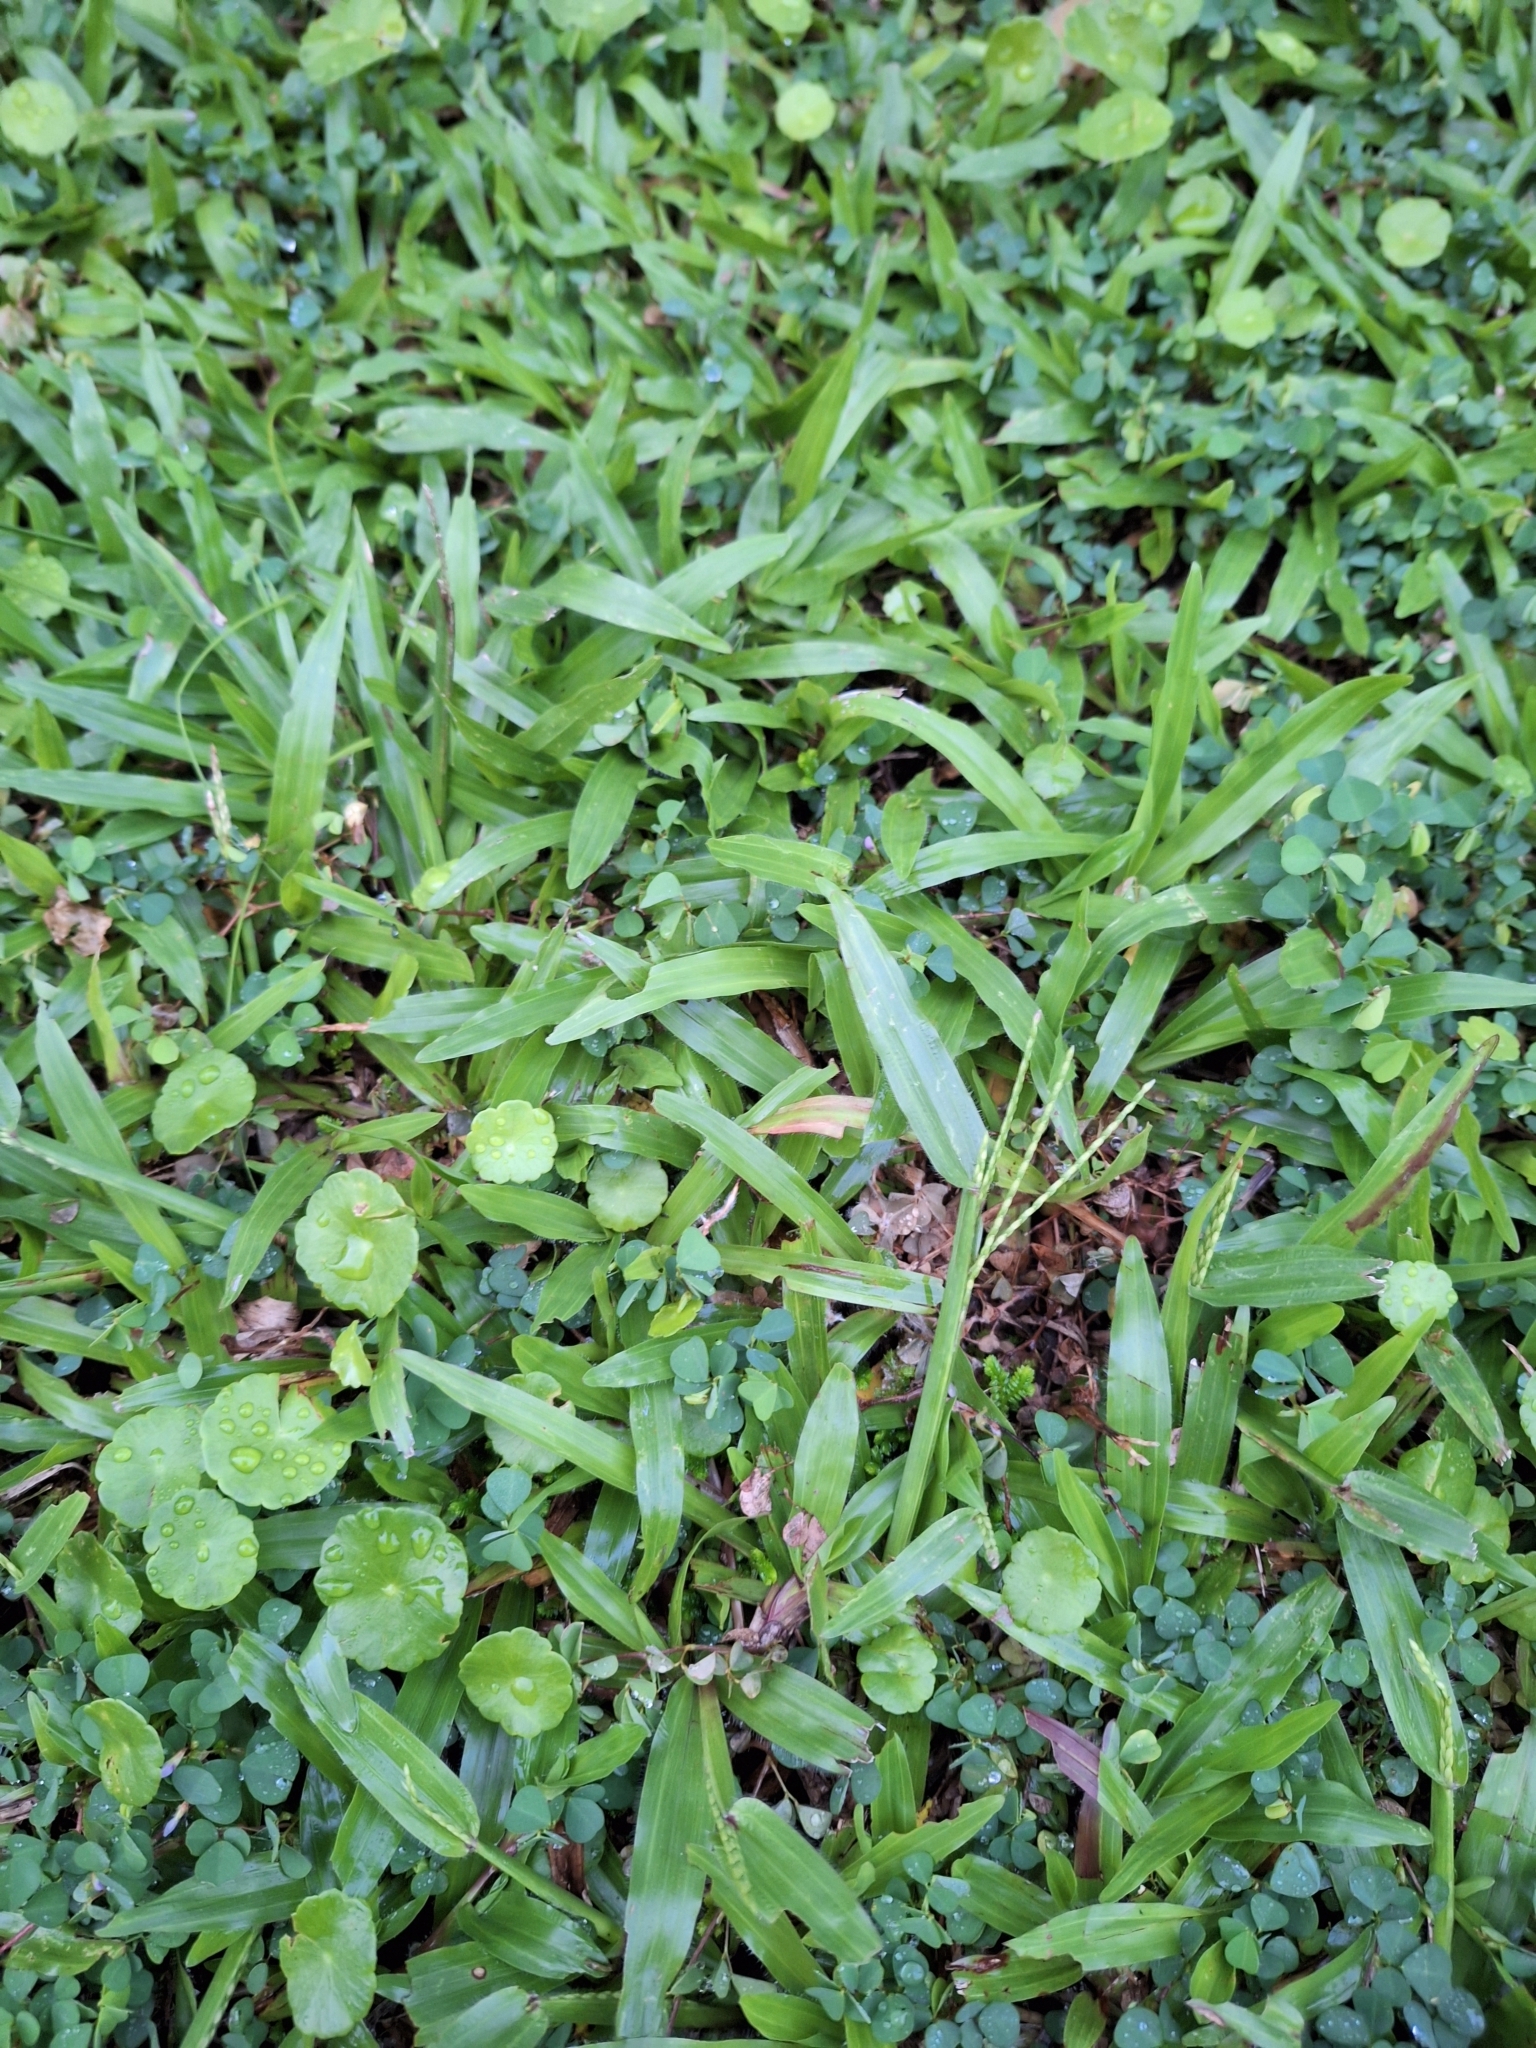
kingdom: Plantae
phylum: Tracheophyta
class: Liliopsida
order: Poales
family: Poaceae
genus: Axonopus
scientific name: Axonopus compressus
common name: American carpet grass
